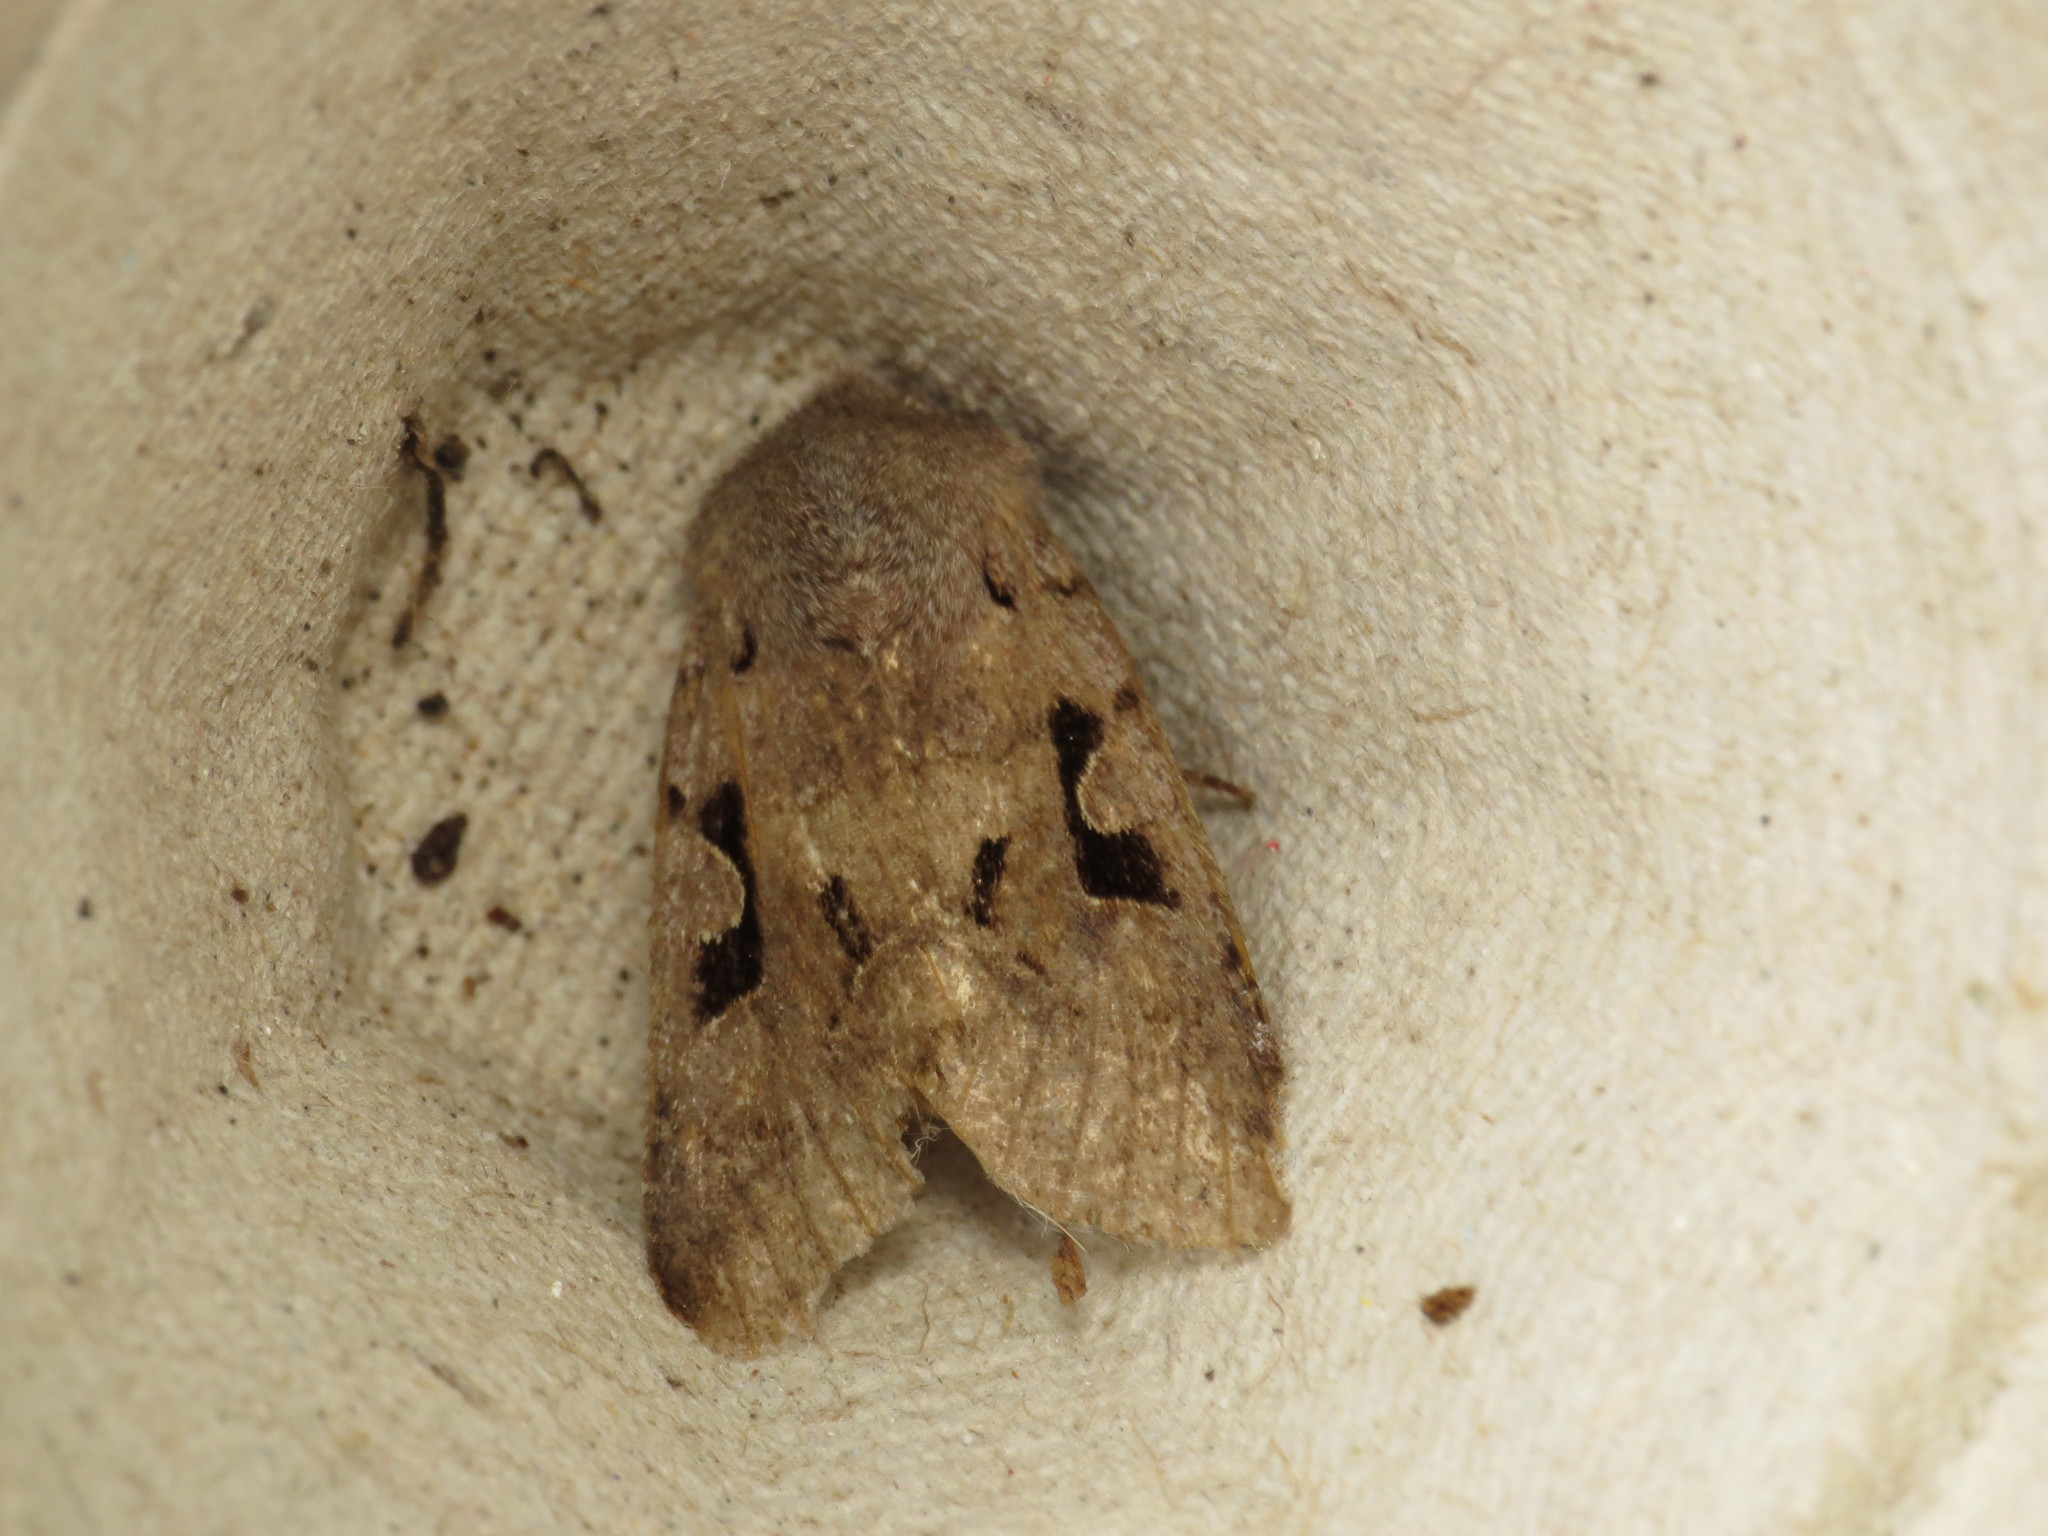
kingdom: Animalia
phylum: Arthropoda
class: Insecta
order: Lepidoptera
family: Noctuidae
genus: Orthosia
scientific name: Orthosia gothica
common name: Hebrew character
